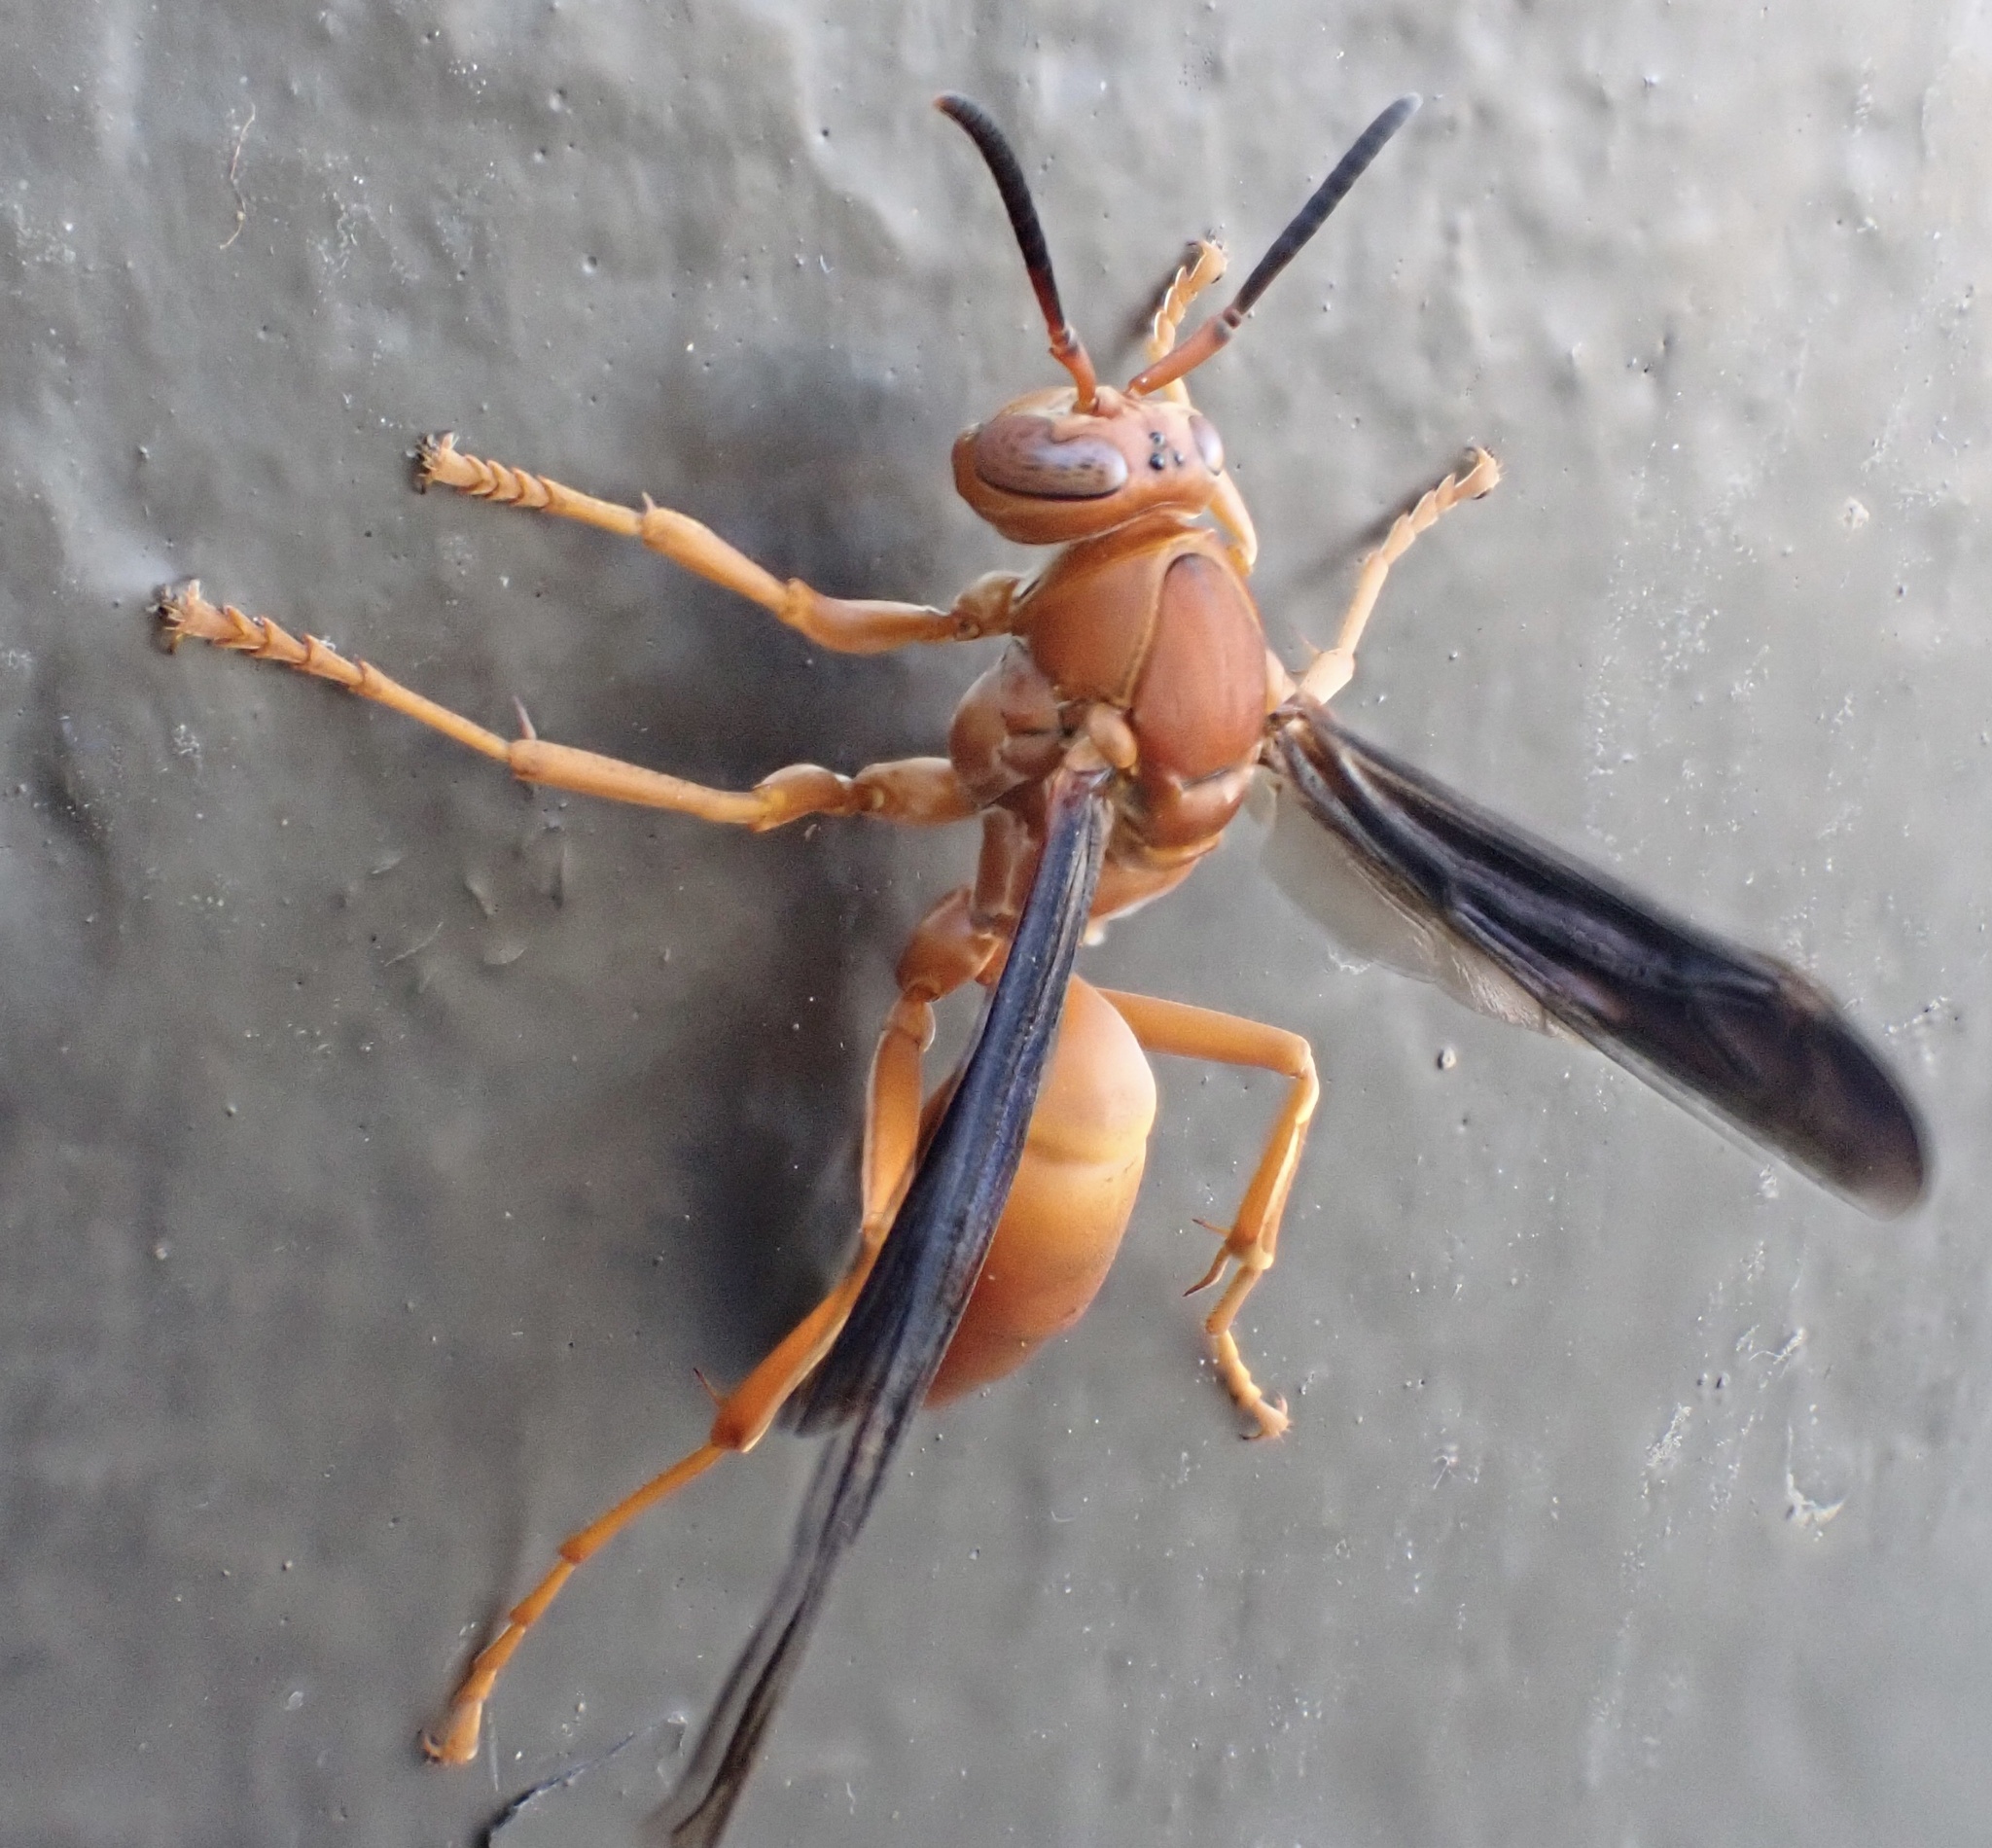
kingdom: Animalia
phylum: Arthropoda
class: Insecta
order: Hymenoptera
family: Eumenidae
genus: Polistes
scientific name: Polistes carolina
